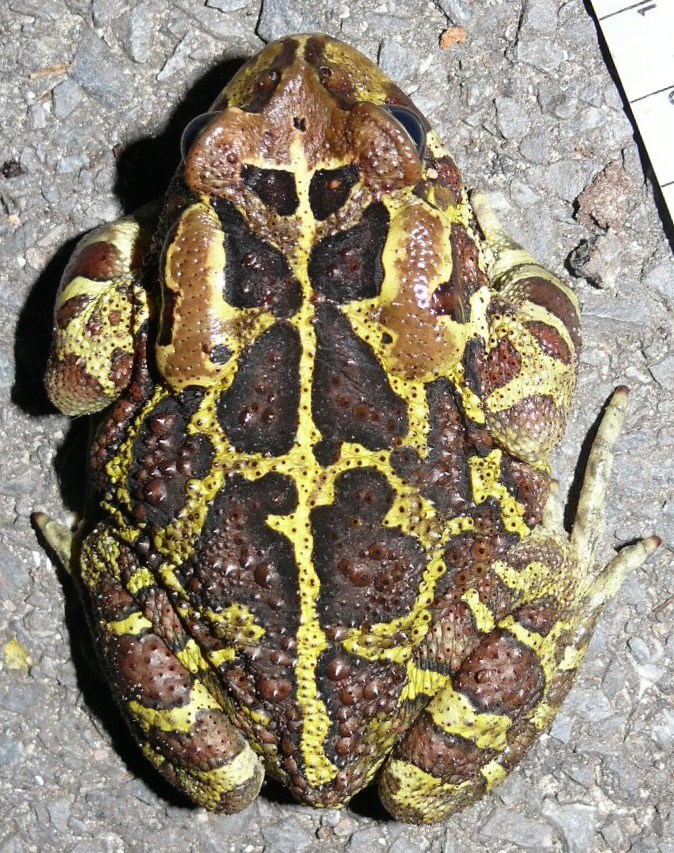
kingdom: Animalia
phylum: Chordata
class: Amphibia
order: Anura
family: Bufonidae
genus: Sclerophrys
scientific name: Sclerophrys pantherina
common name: Panther toad
